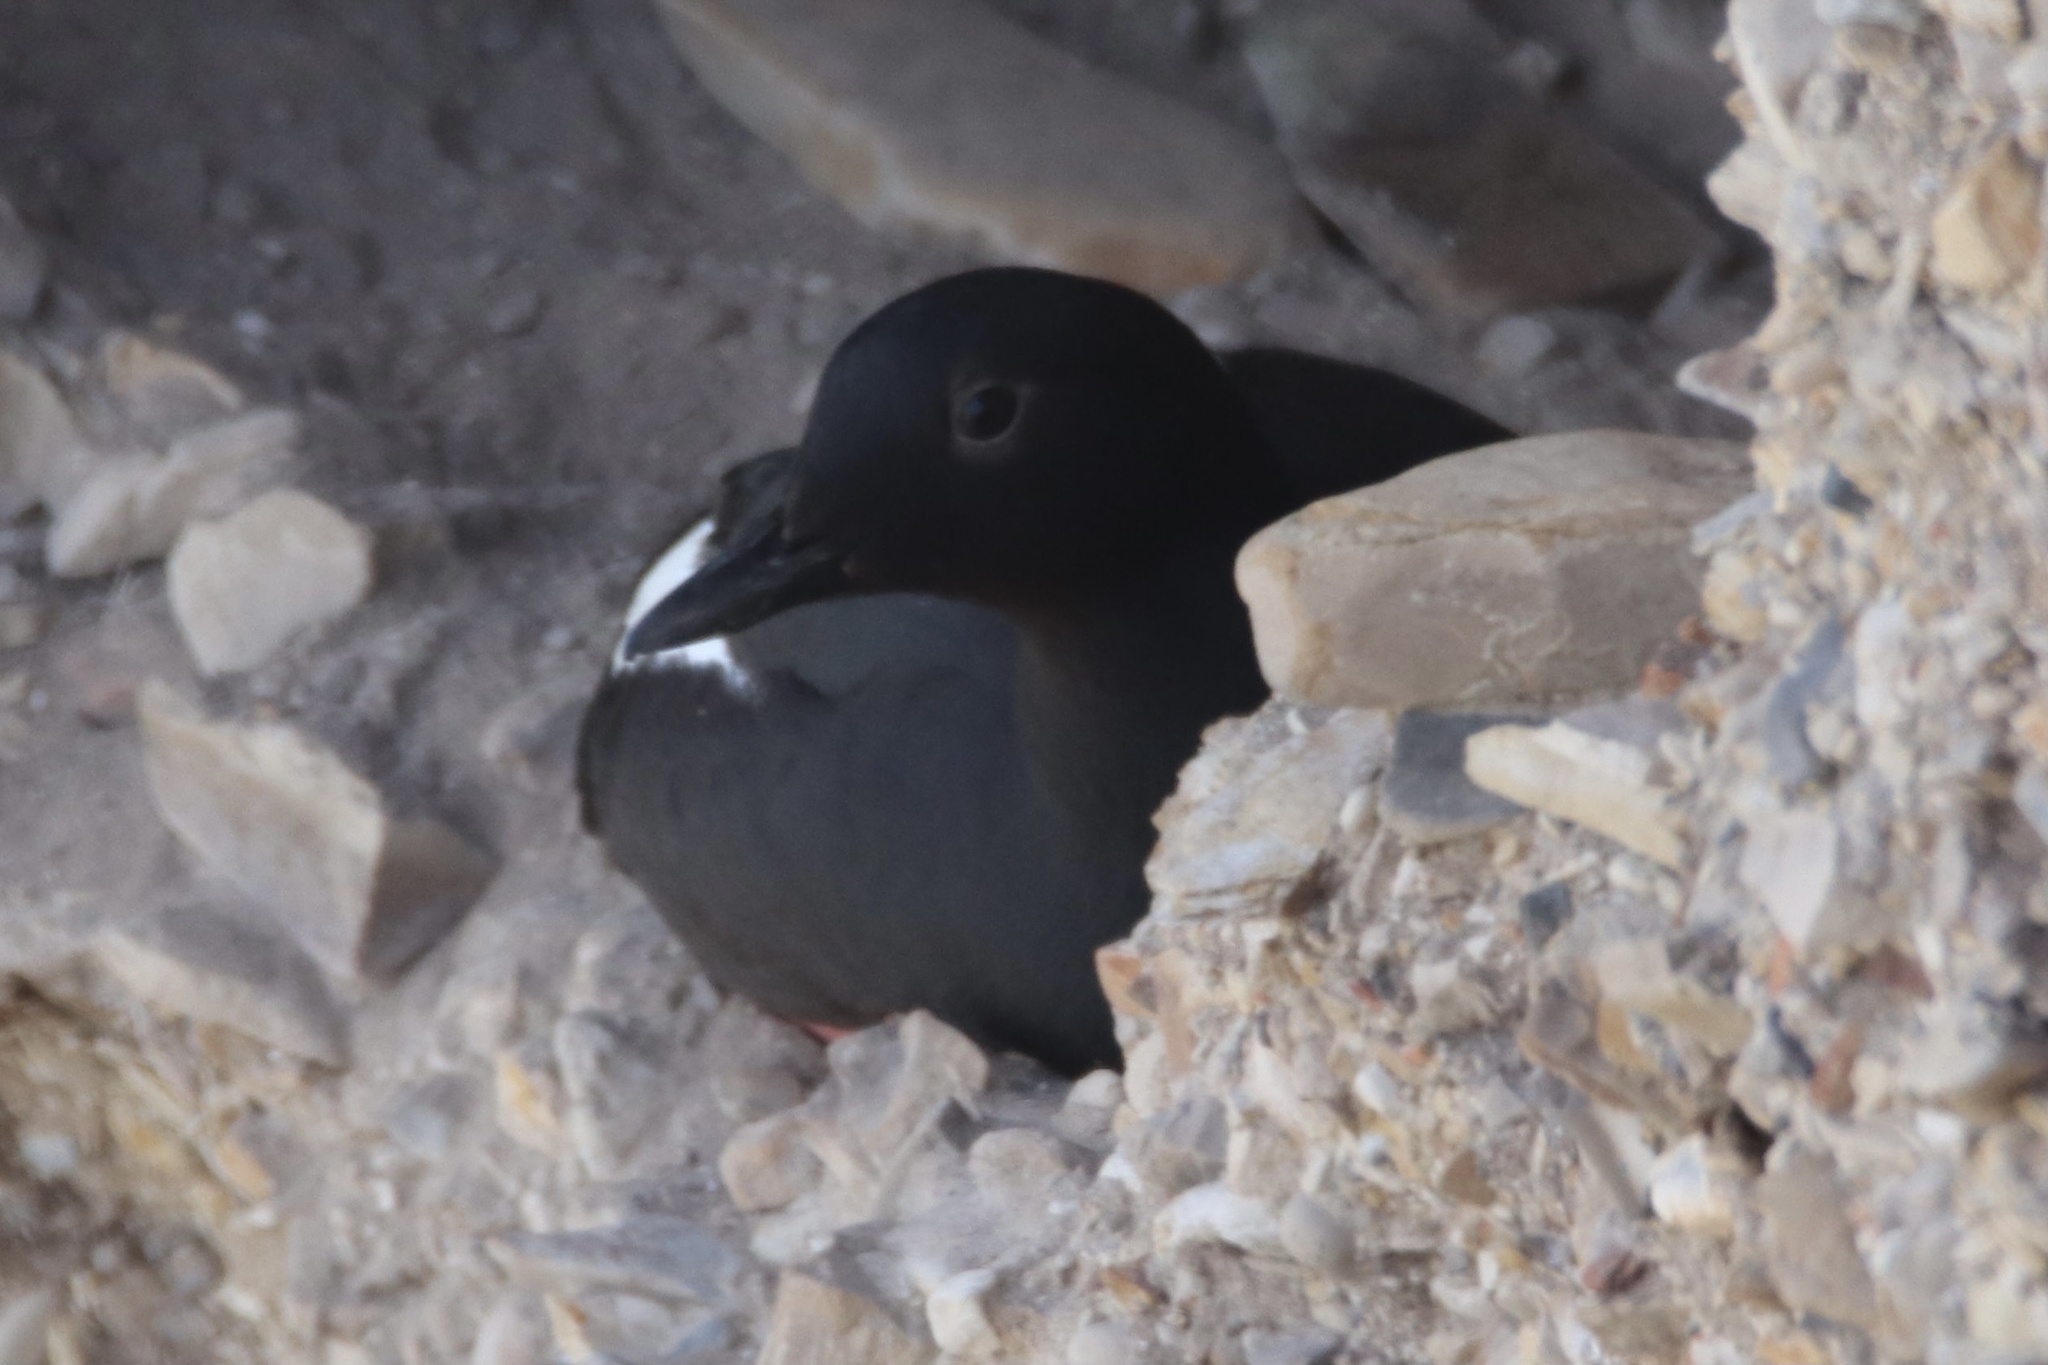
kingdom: Animalia
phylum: Chordata
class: Aves
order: Charadriiformes
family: Alcidae
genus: Cepphus
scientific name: Cepphus columba
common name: Pigeon guillemot
